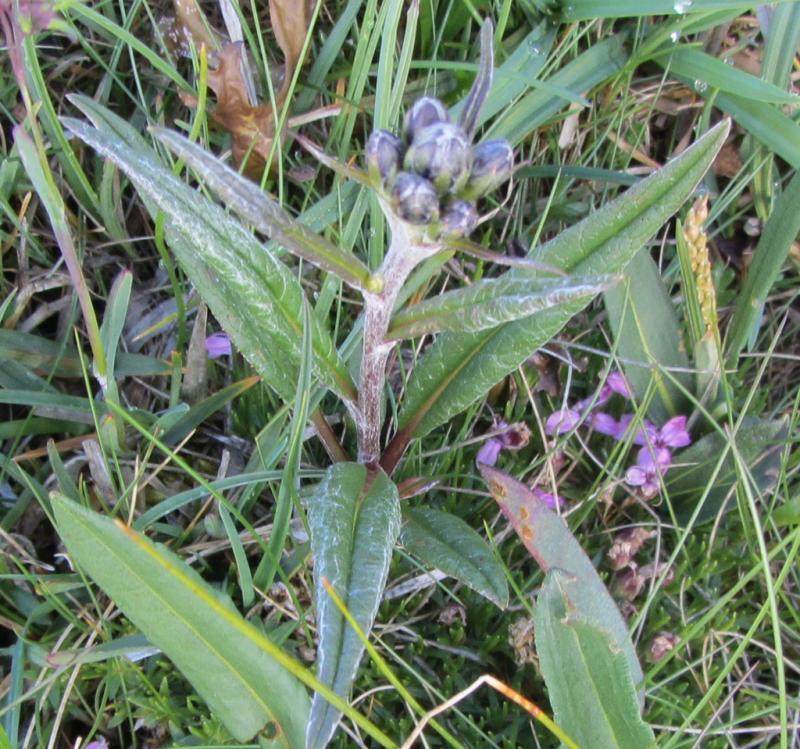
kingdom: Plantae
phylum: Tracheophyta
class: Magnoliopsida
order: Asterales
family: Asteraceae
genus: Saussurea
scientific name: Saussurea alpina
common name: Alpine saw-wort
